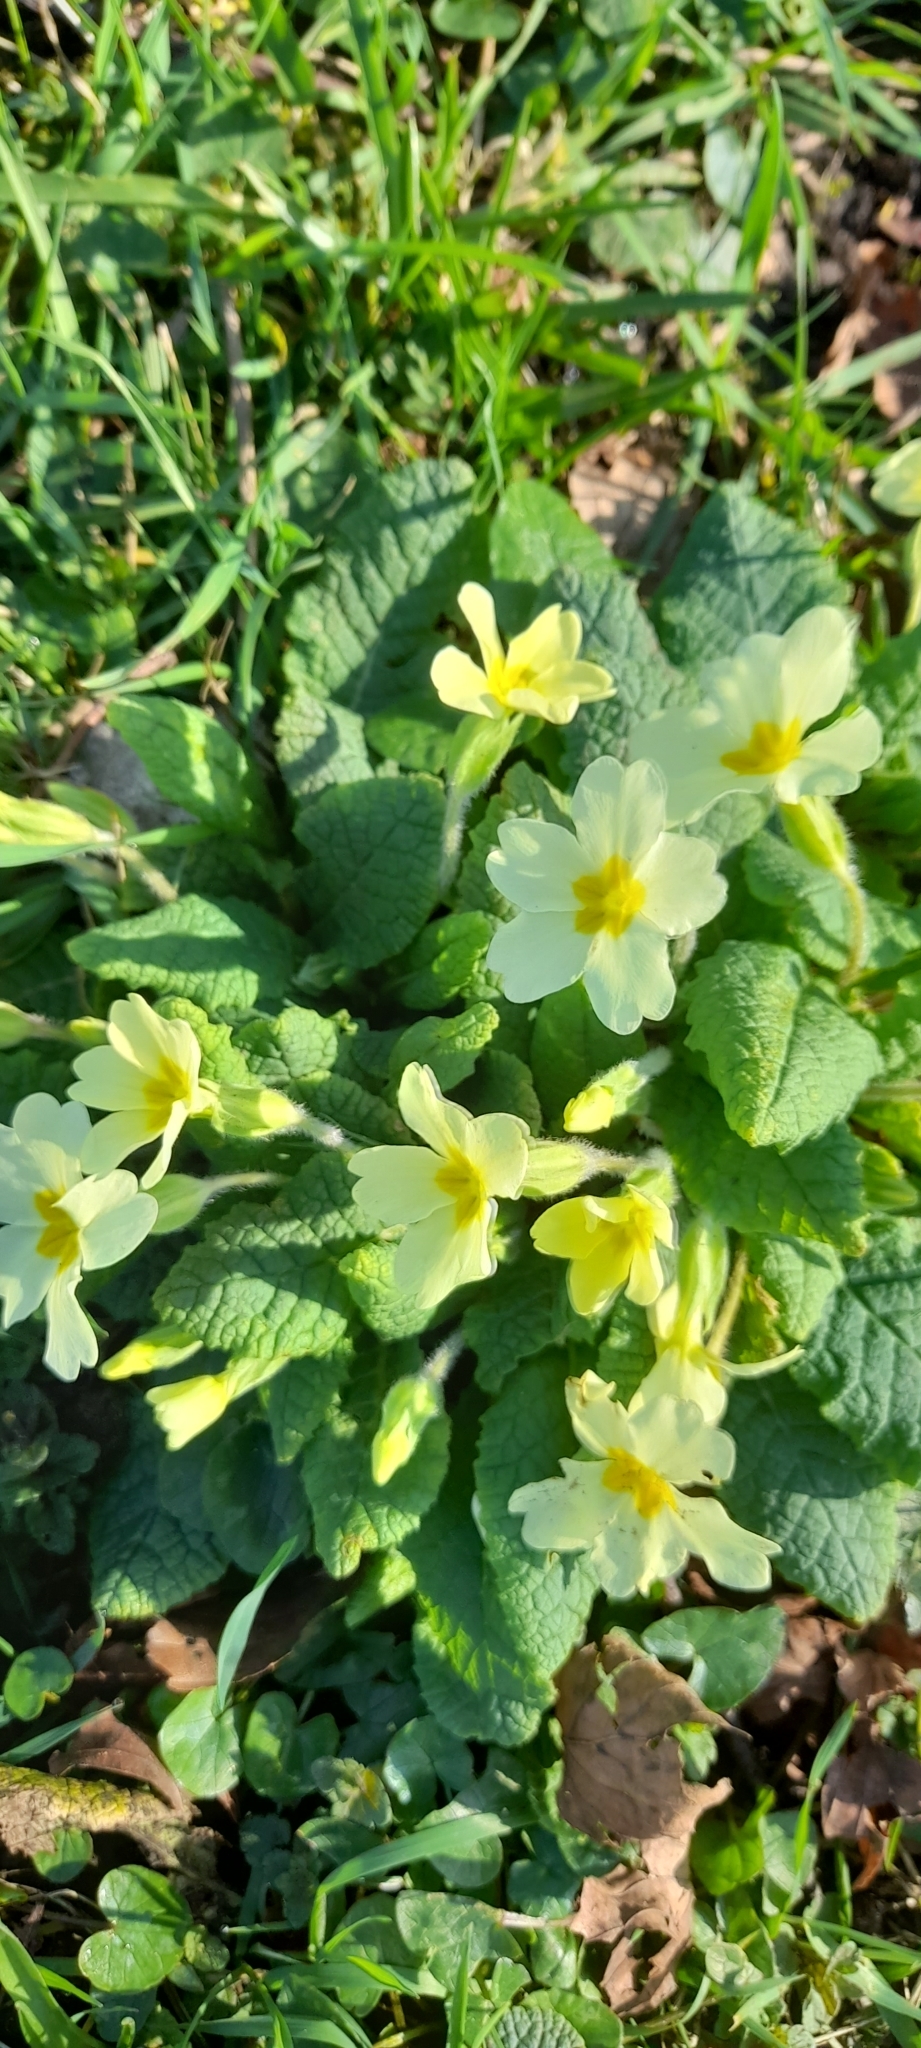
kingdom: Plantae
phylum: Tracheophyta
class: Magnoliopsida
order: Ericales
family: Primulaceae
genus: Primula
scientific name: Primula vulgaris
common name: Primrose
